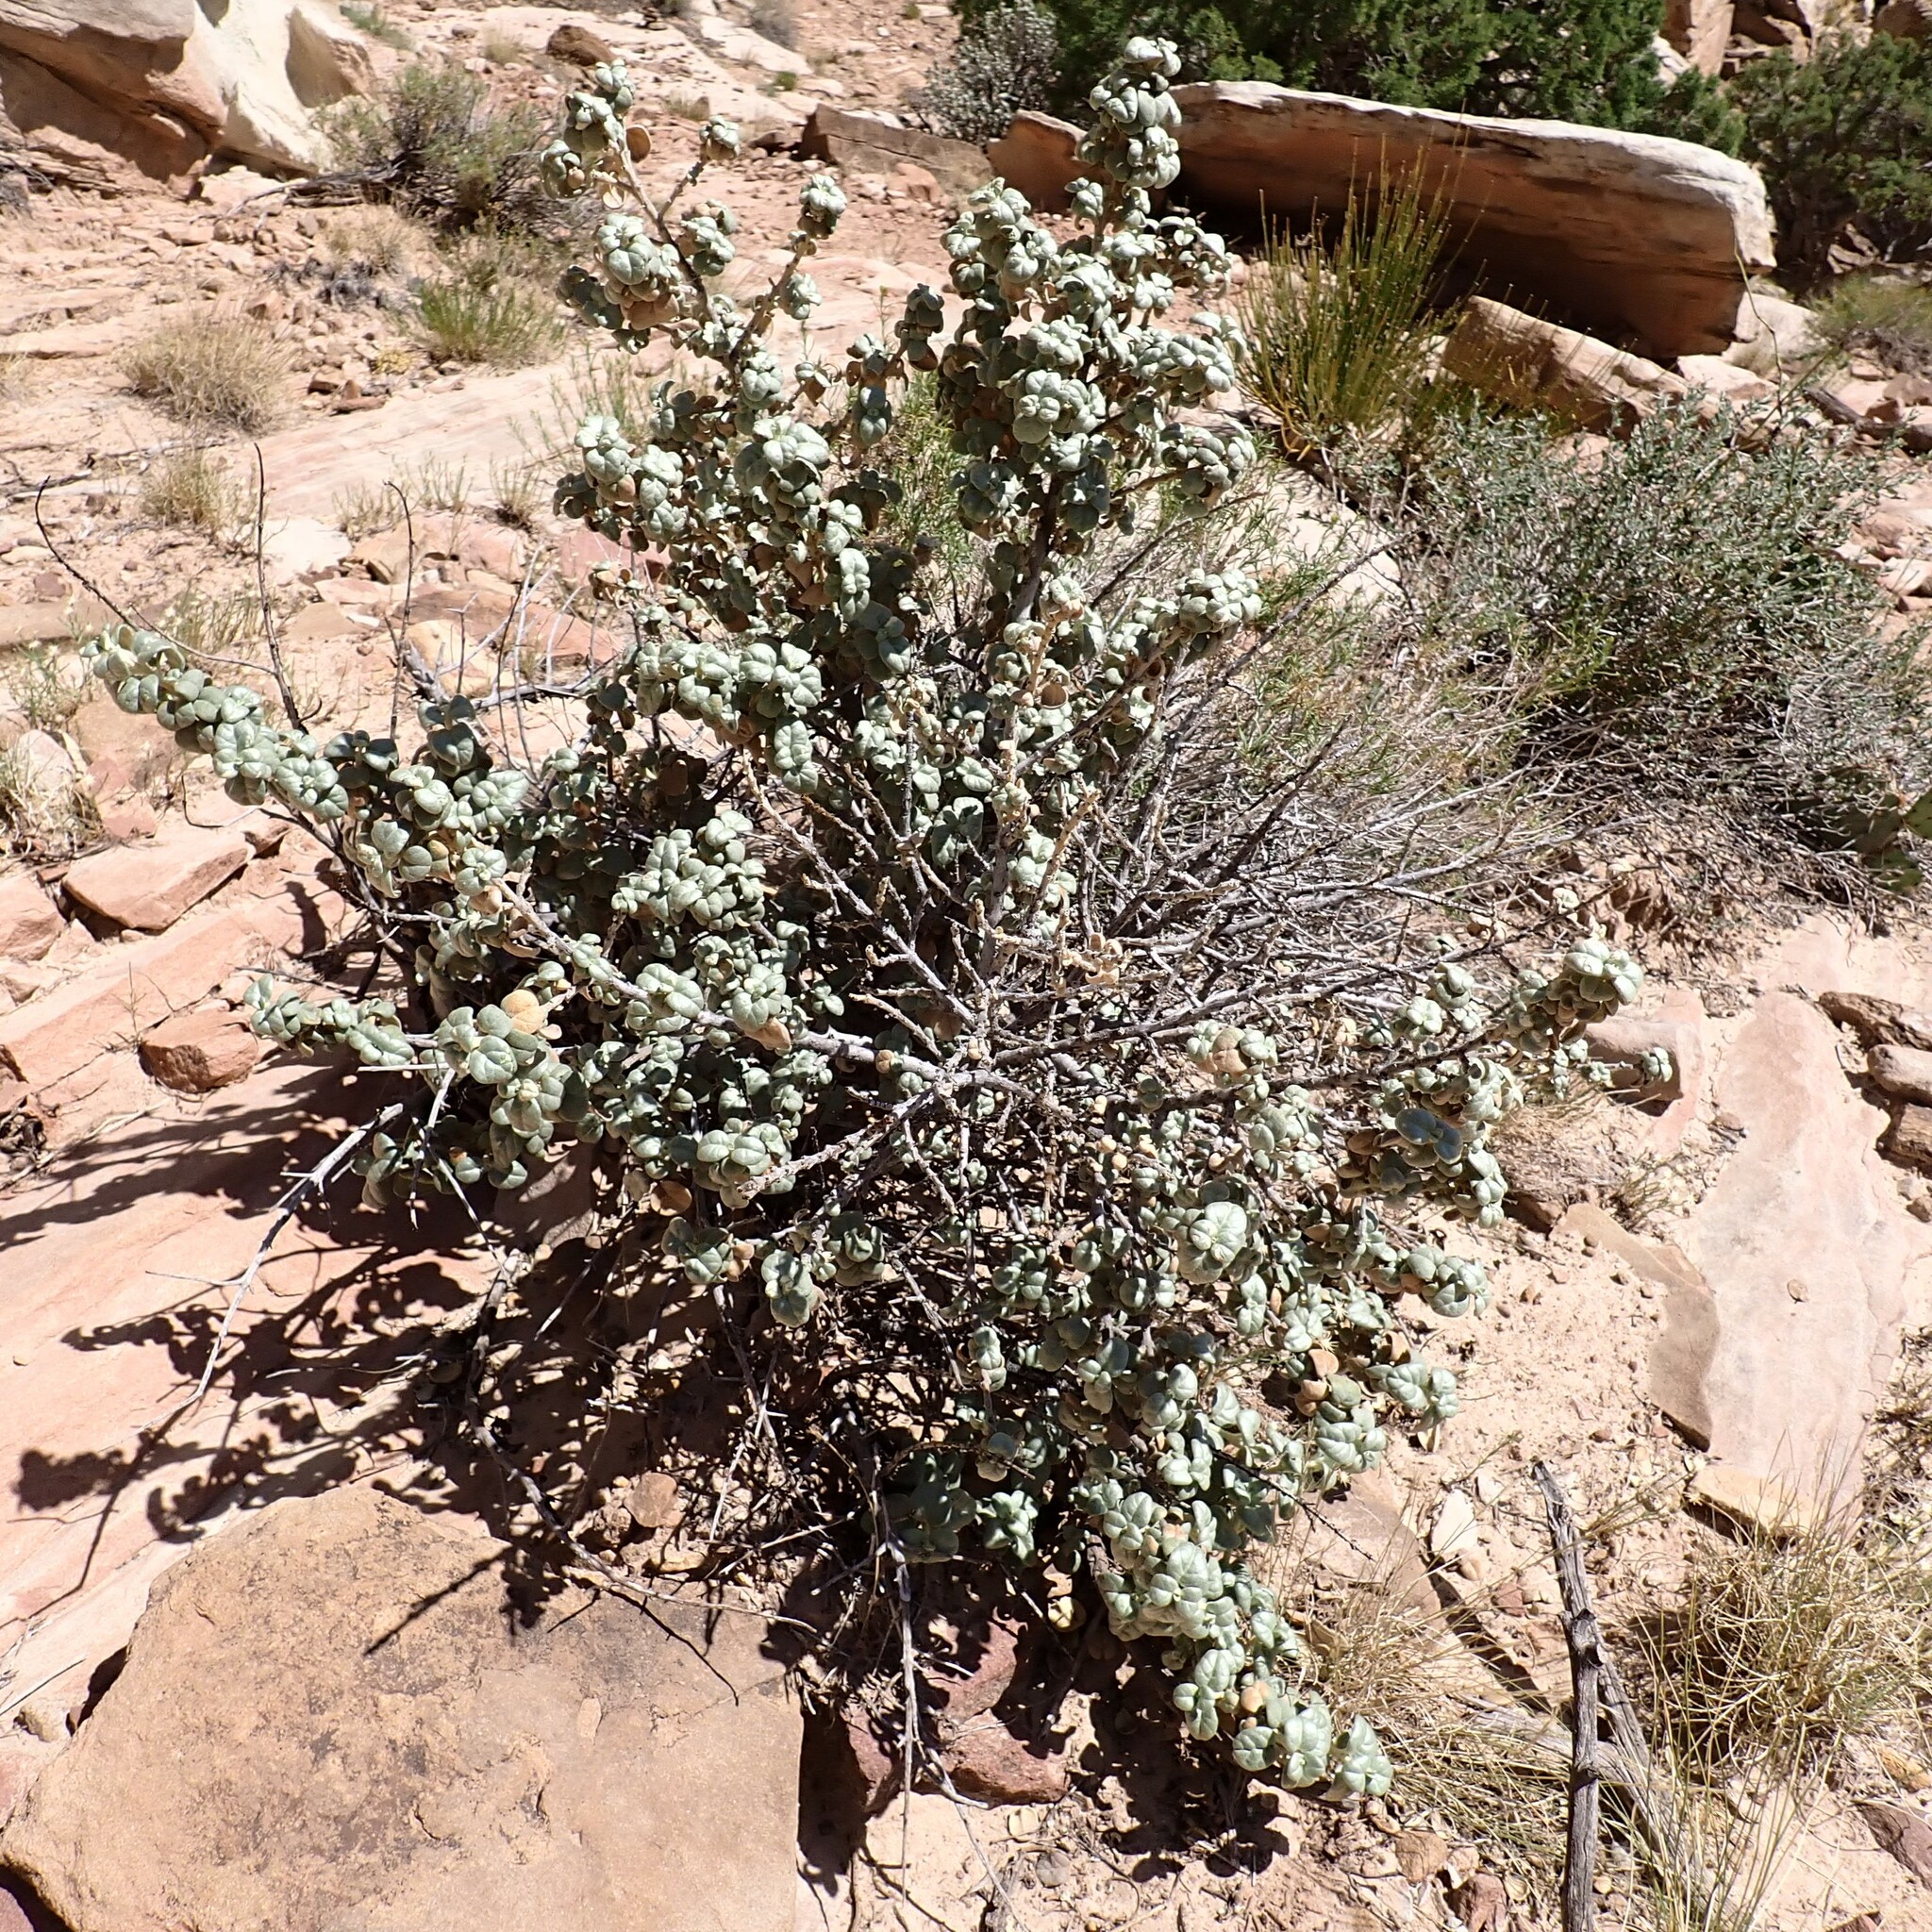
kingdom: Plantae
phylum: Tracheophyta
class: Magnoliopsida
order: Rosales
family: Elaeagnaceae
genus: Shepherdia
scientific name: Shepherdia rotundifolia
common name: Silverscale
